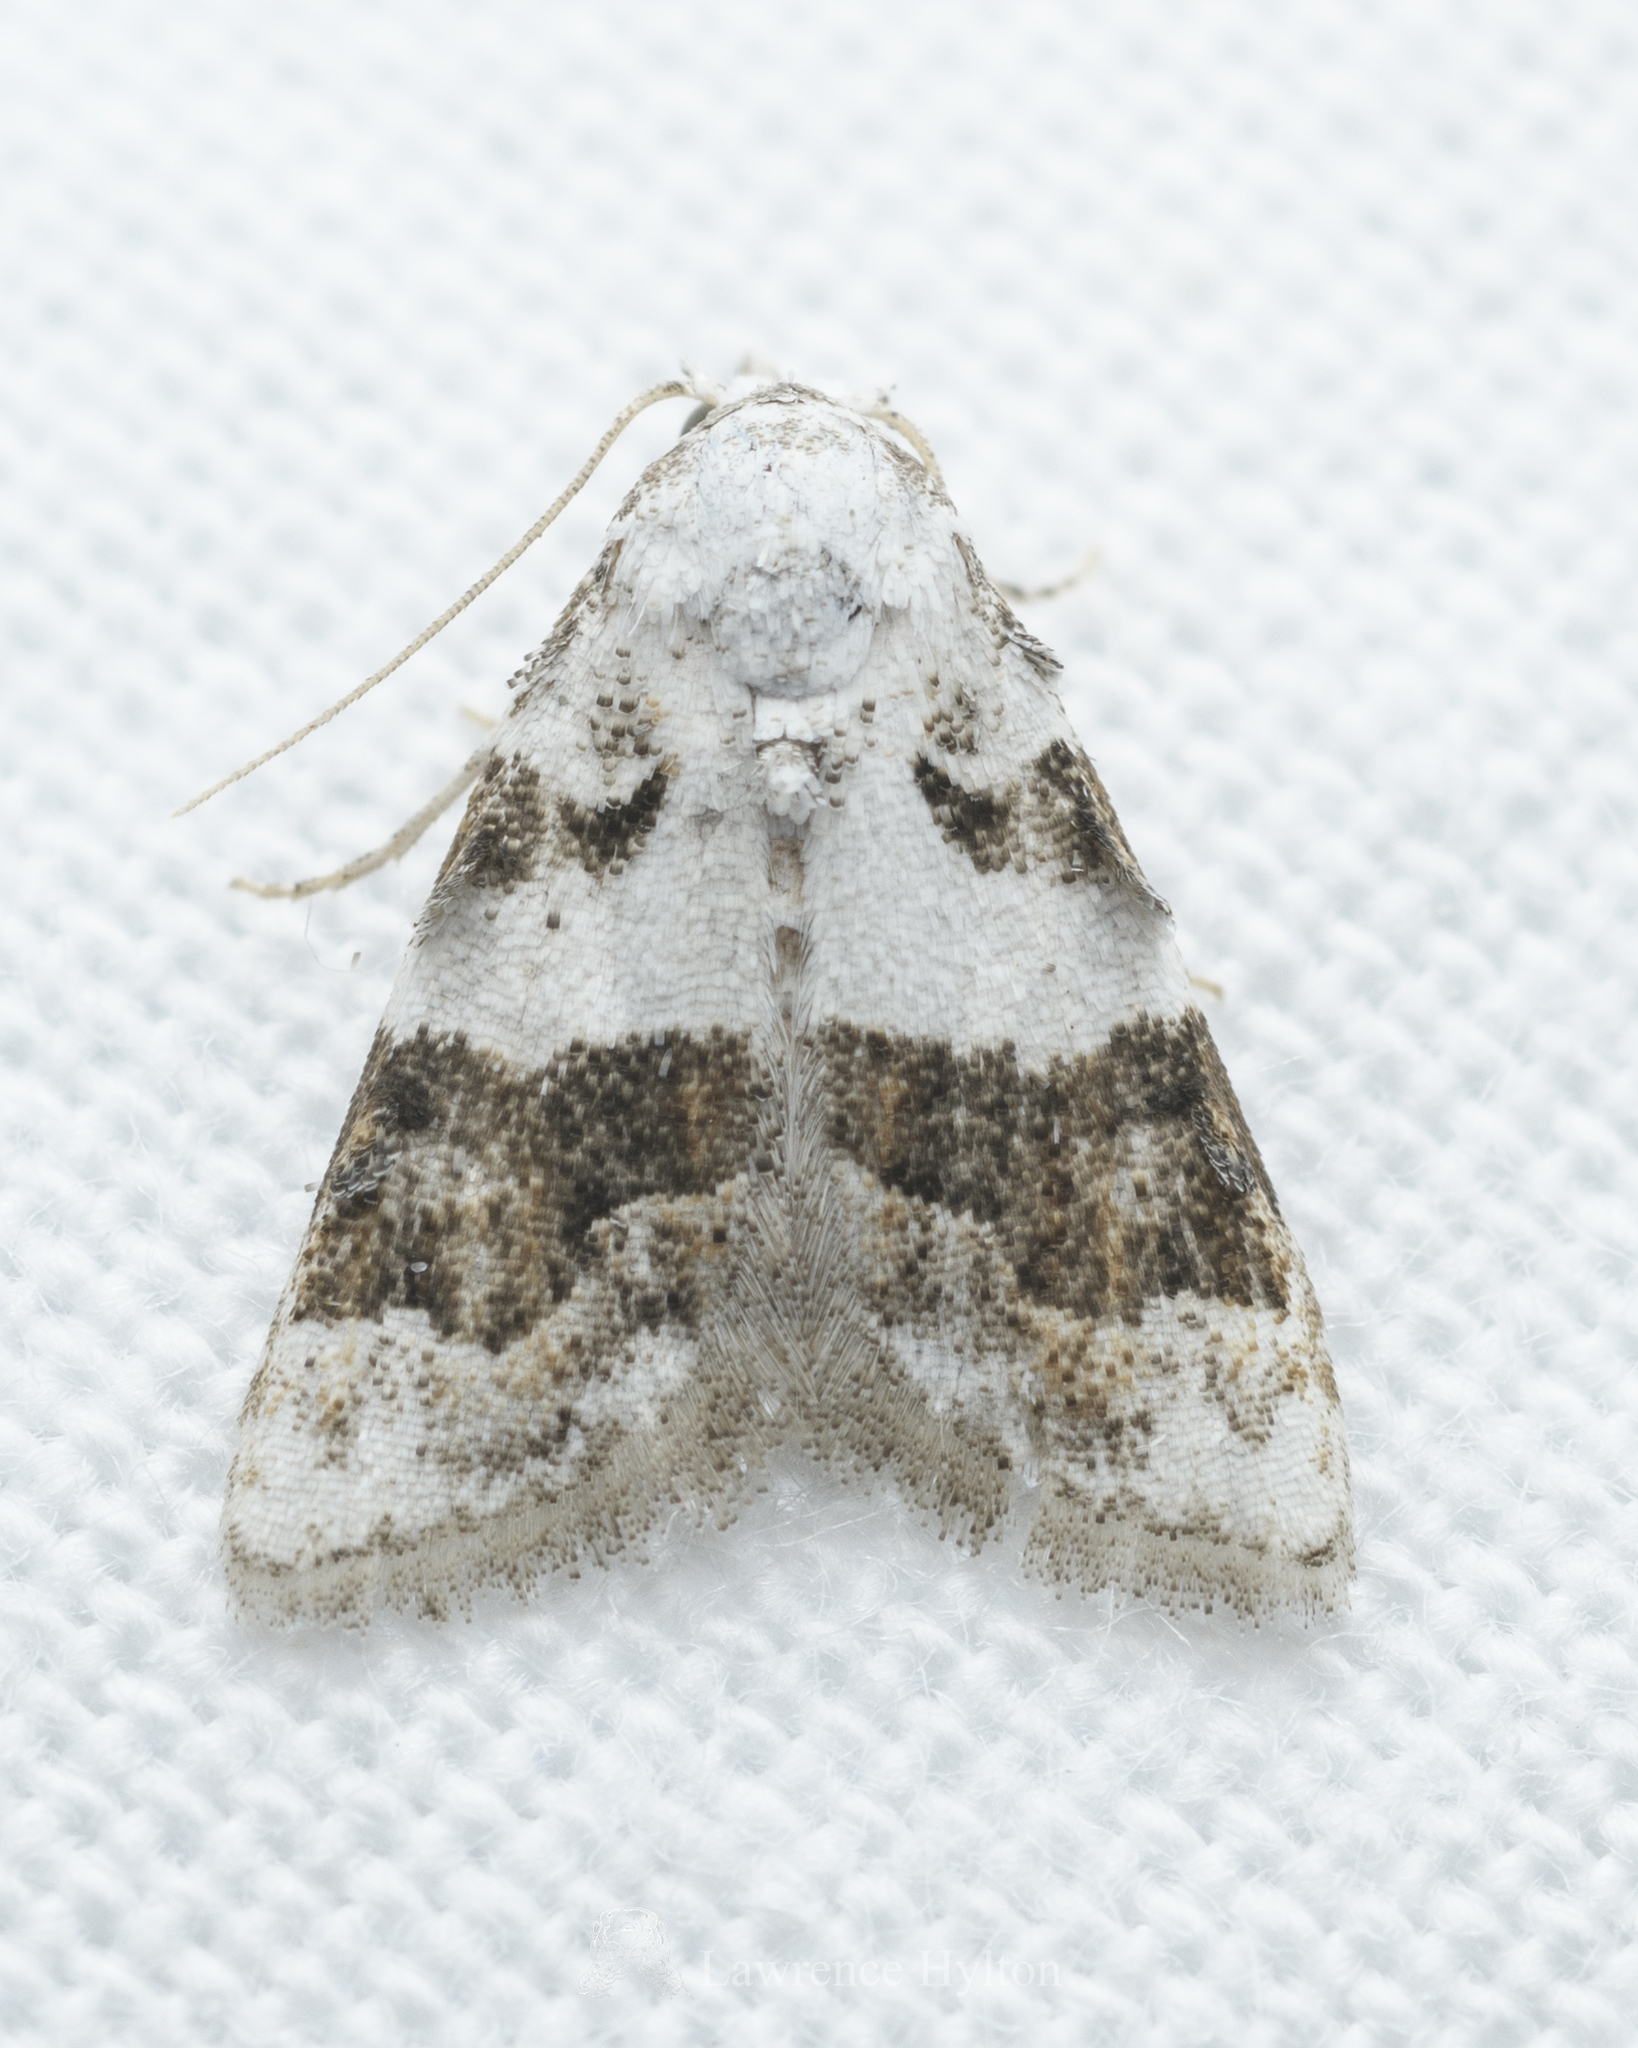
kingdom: Animalia
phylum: Arthropoda
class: Insecta
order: Lepidoptera
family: Nolidae
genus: Nola
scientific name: Nola lucidalis
